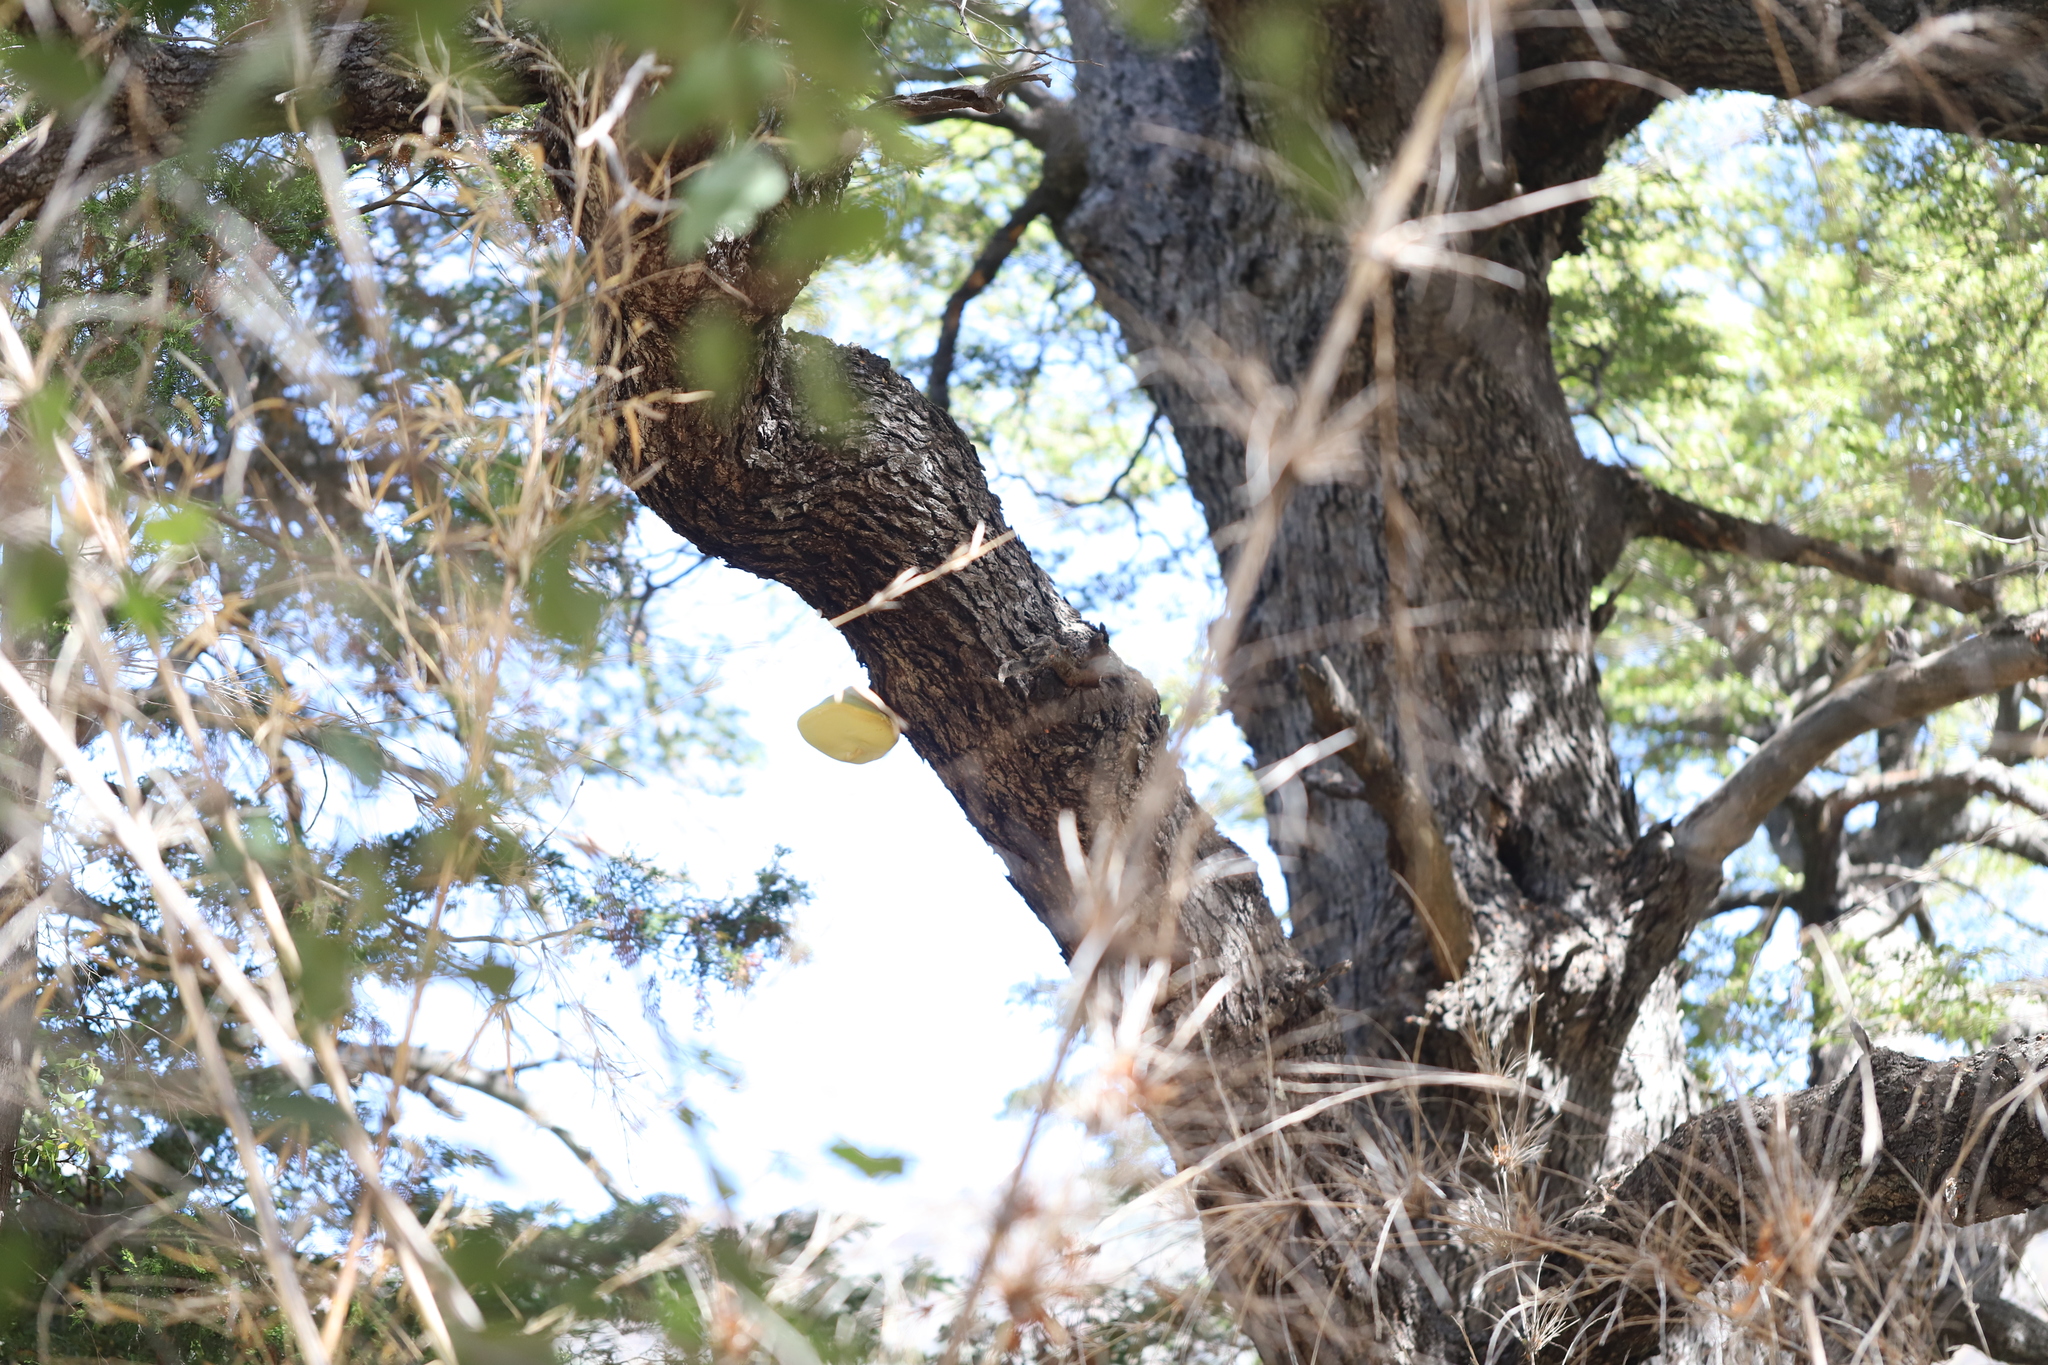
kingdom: Plantae
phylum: Tracheophyta
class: Magnoliopsida
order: Cardiopteridales
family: Cardiopteridaceae
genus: Citronella
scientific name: Citronella mucronata
